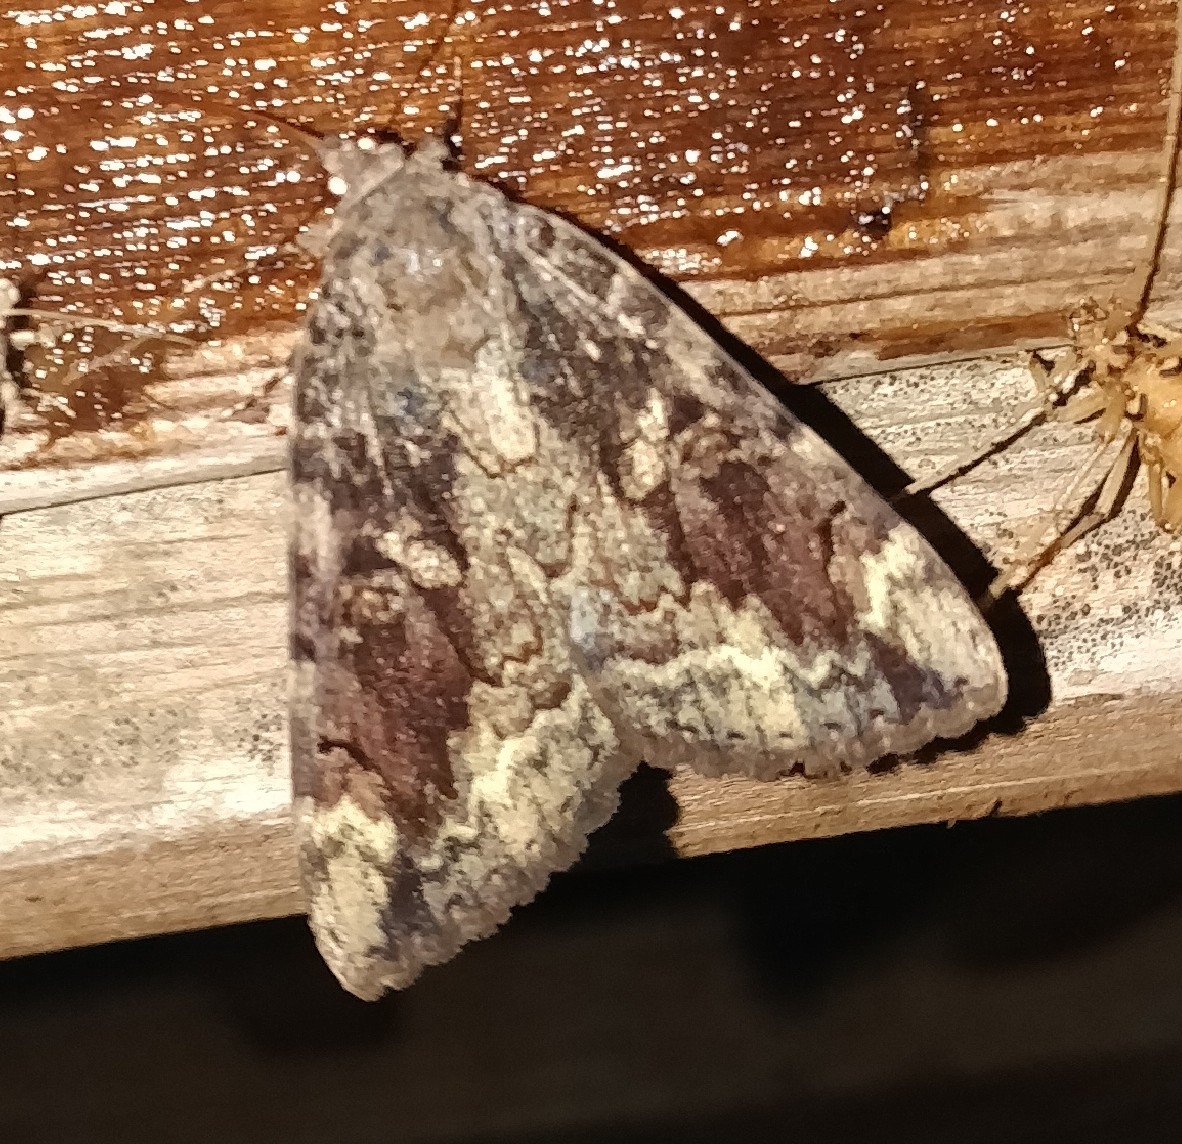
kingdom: Animalia
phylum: Arthropoda
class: Insecta
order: Lepidoptera
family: Erebidae
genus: Catocala
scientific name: Catocala innubens
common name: Betrothed underwing
